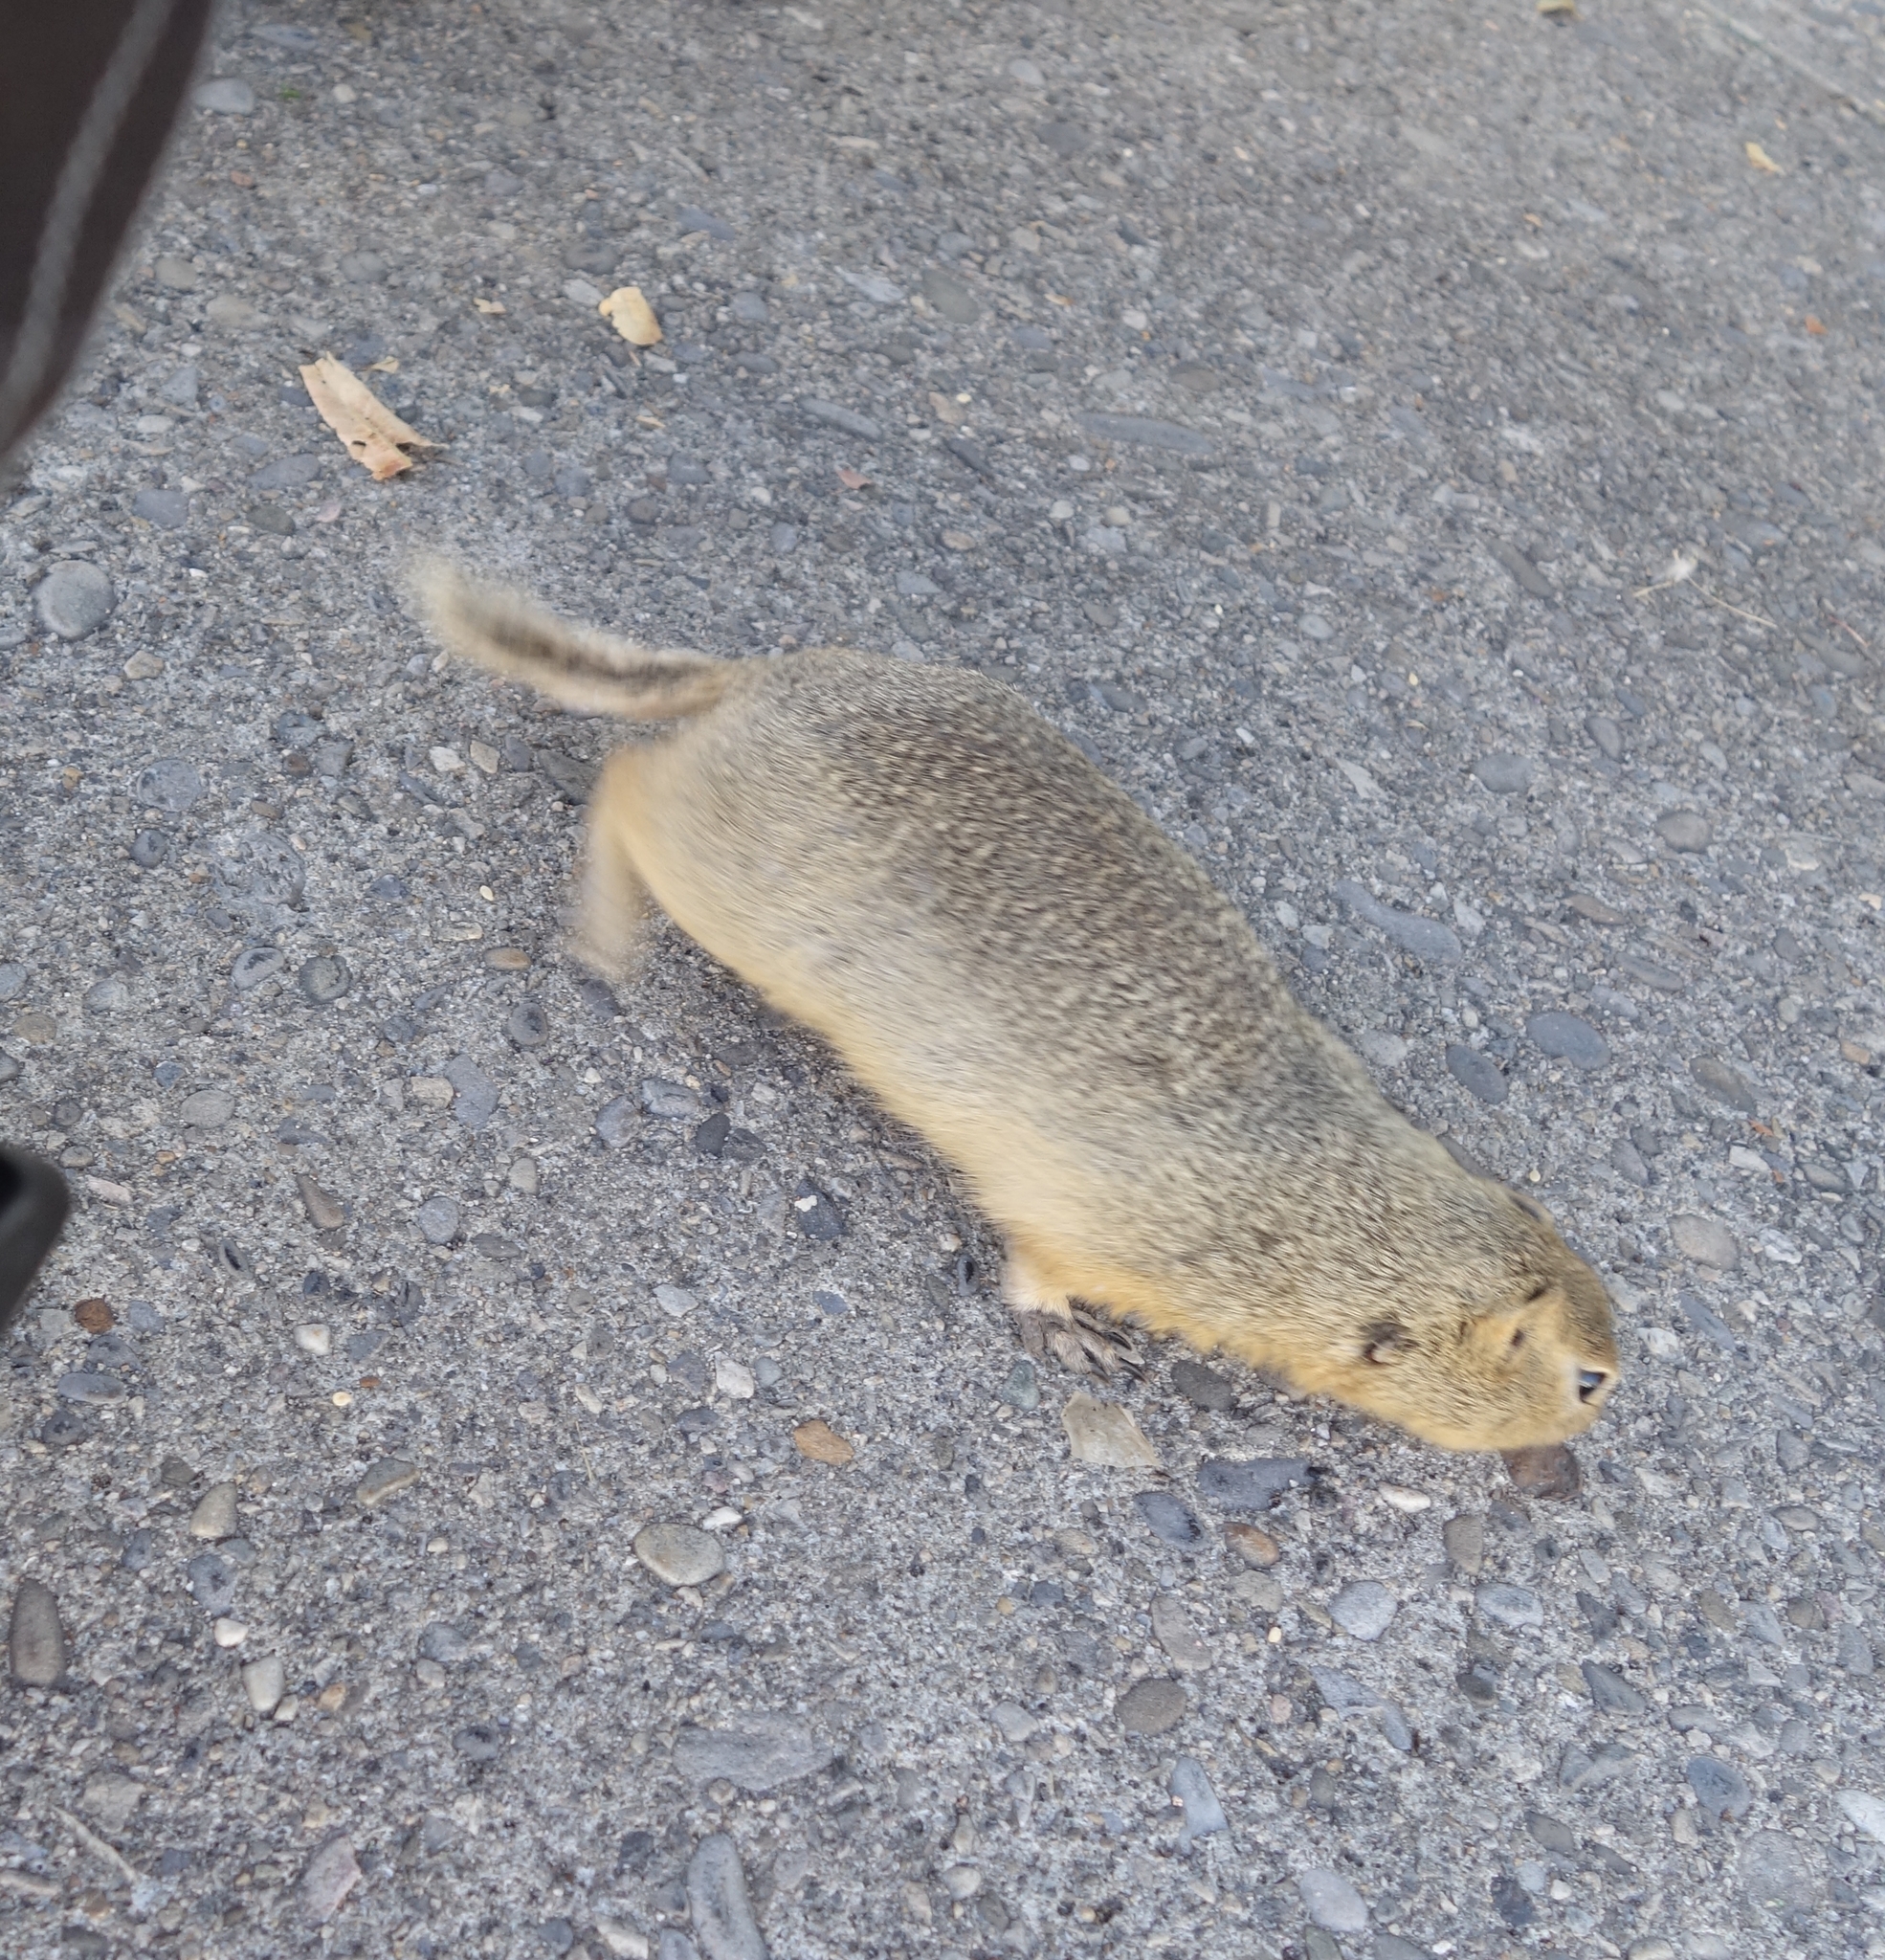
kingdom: Animalia
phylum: Chordata
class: Mammalia
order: Rodentia
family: Sciuridae
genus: Urocitellus
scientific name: Urocitellus richardsonii
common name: Richardson's ground squirrel
